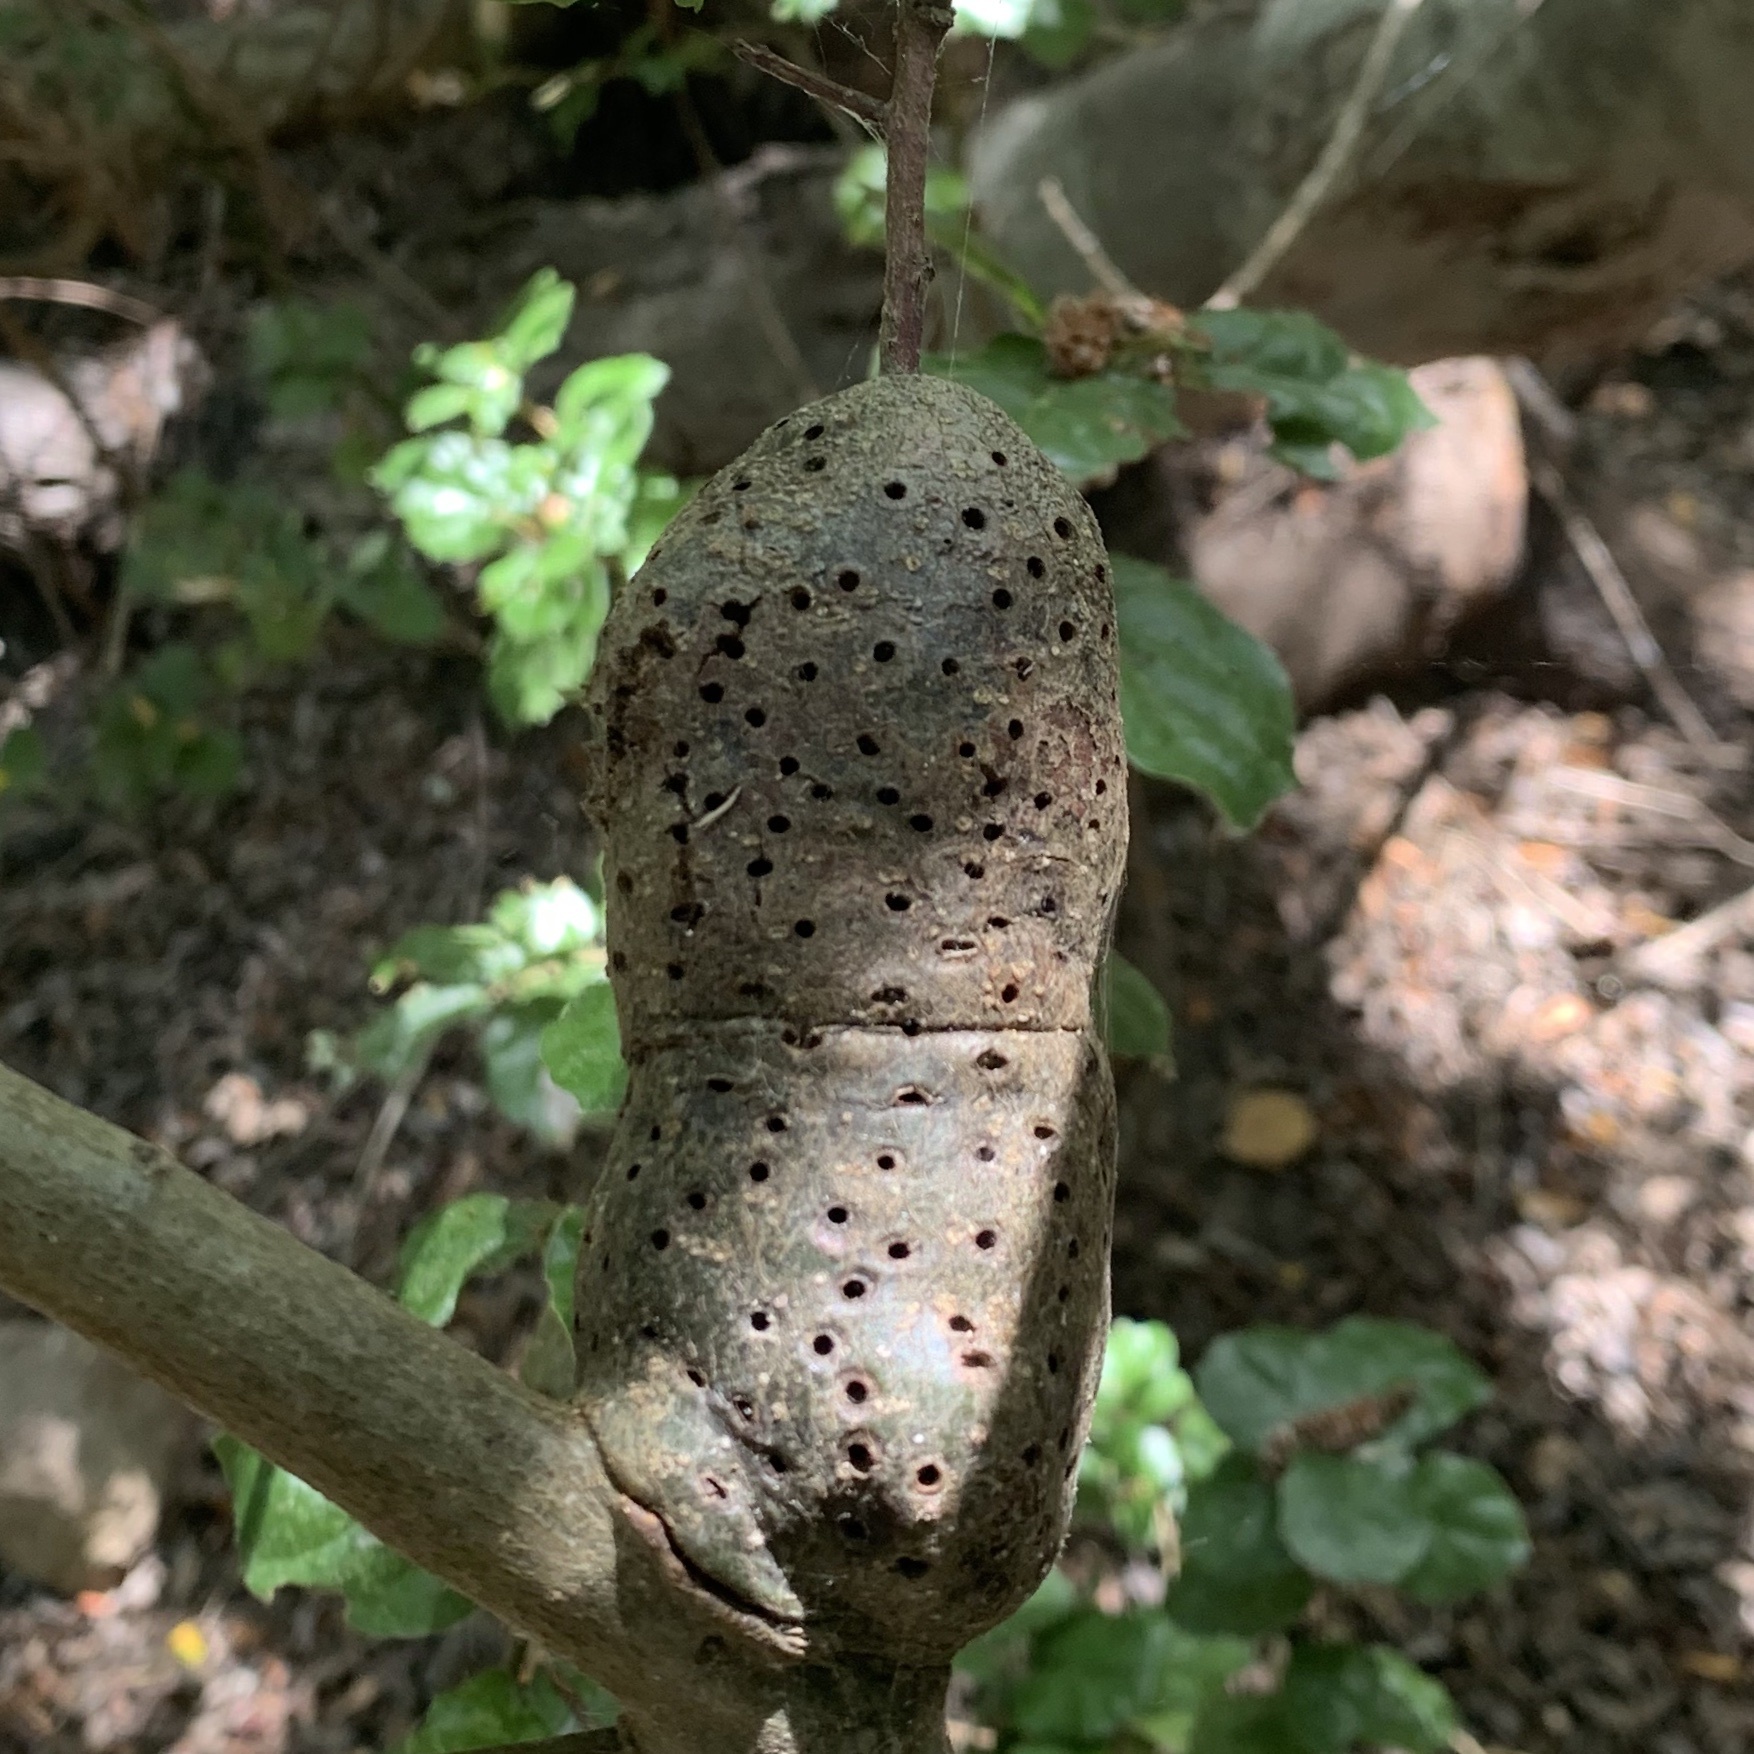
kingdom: Animalia
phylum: Arthropoda
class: Insecta
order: Hymenoptera
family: Cynipidae
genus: Callirhytis
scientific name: Callirhytis
